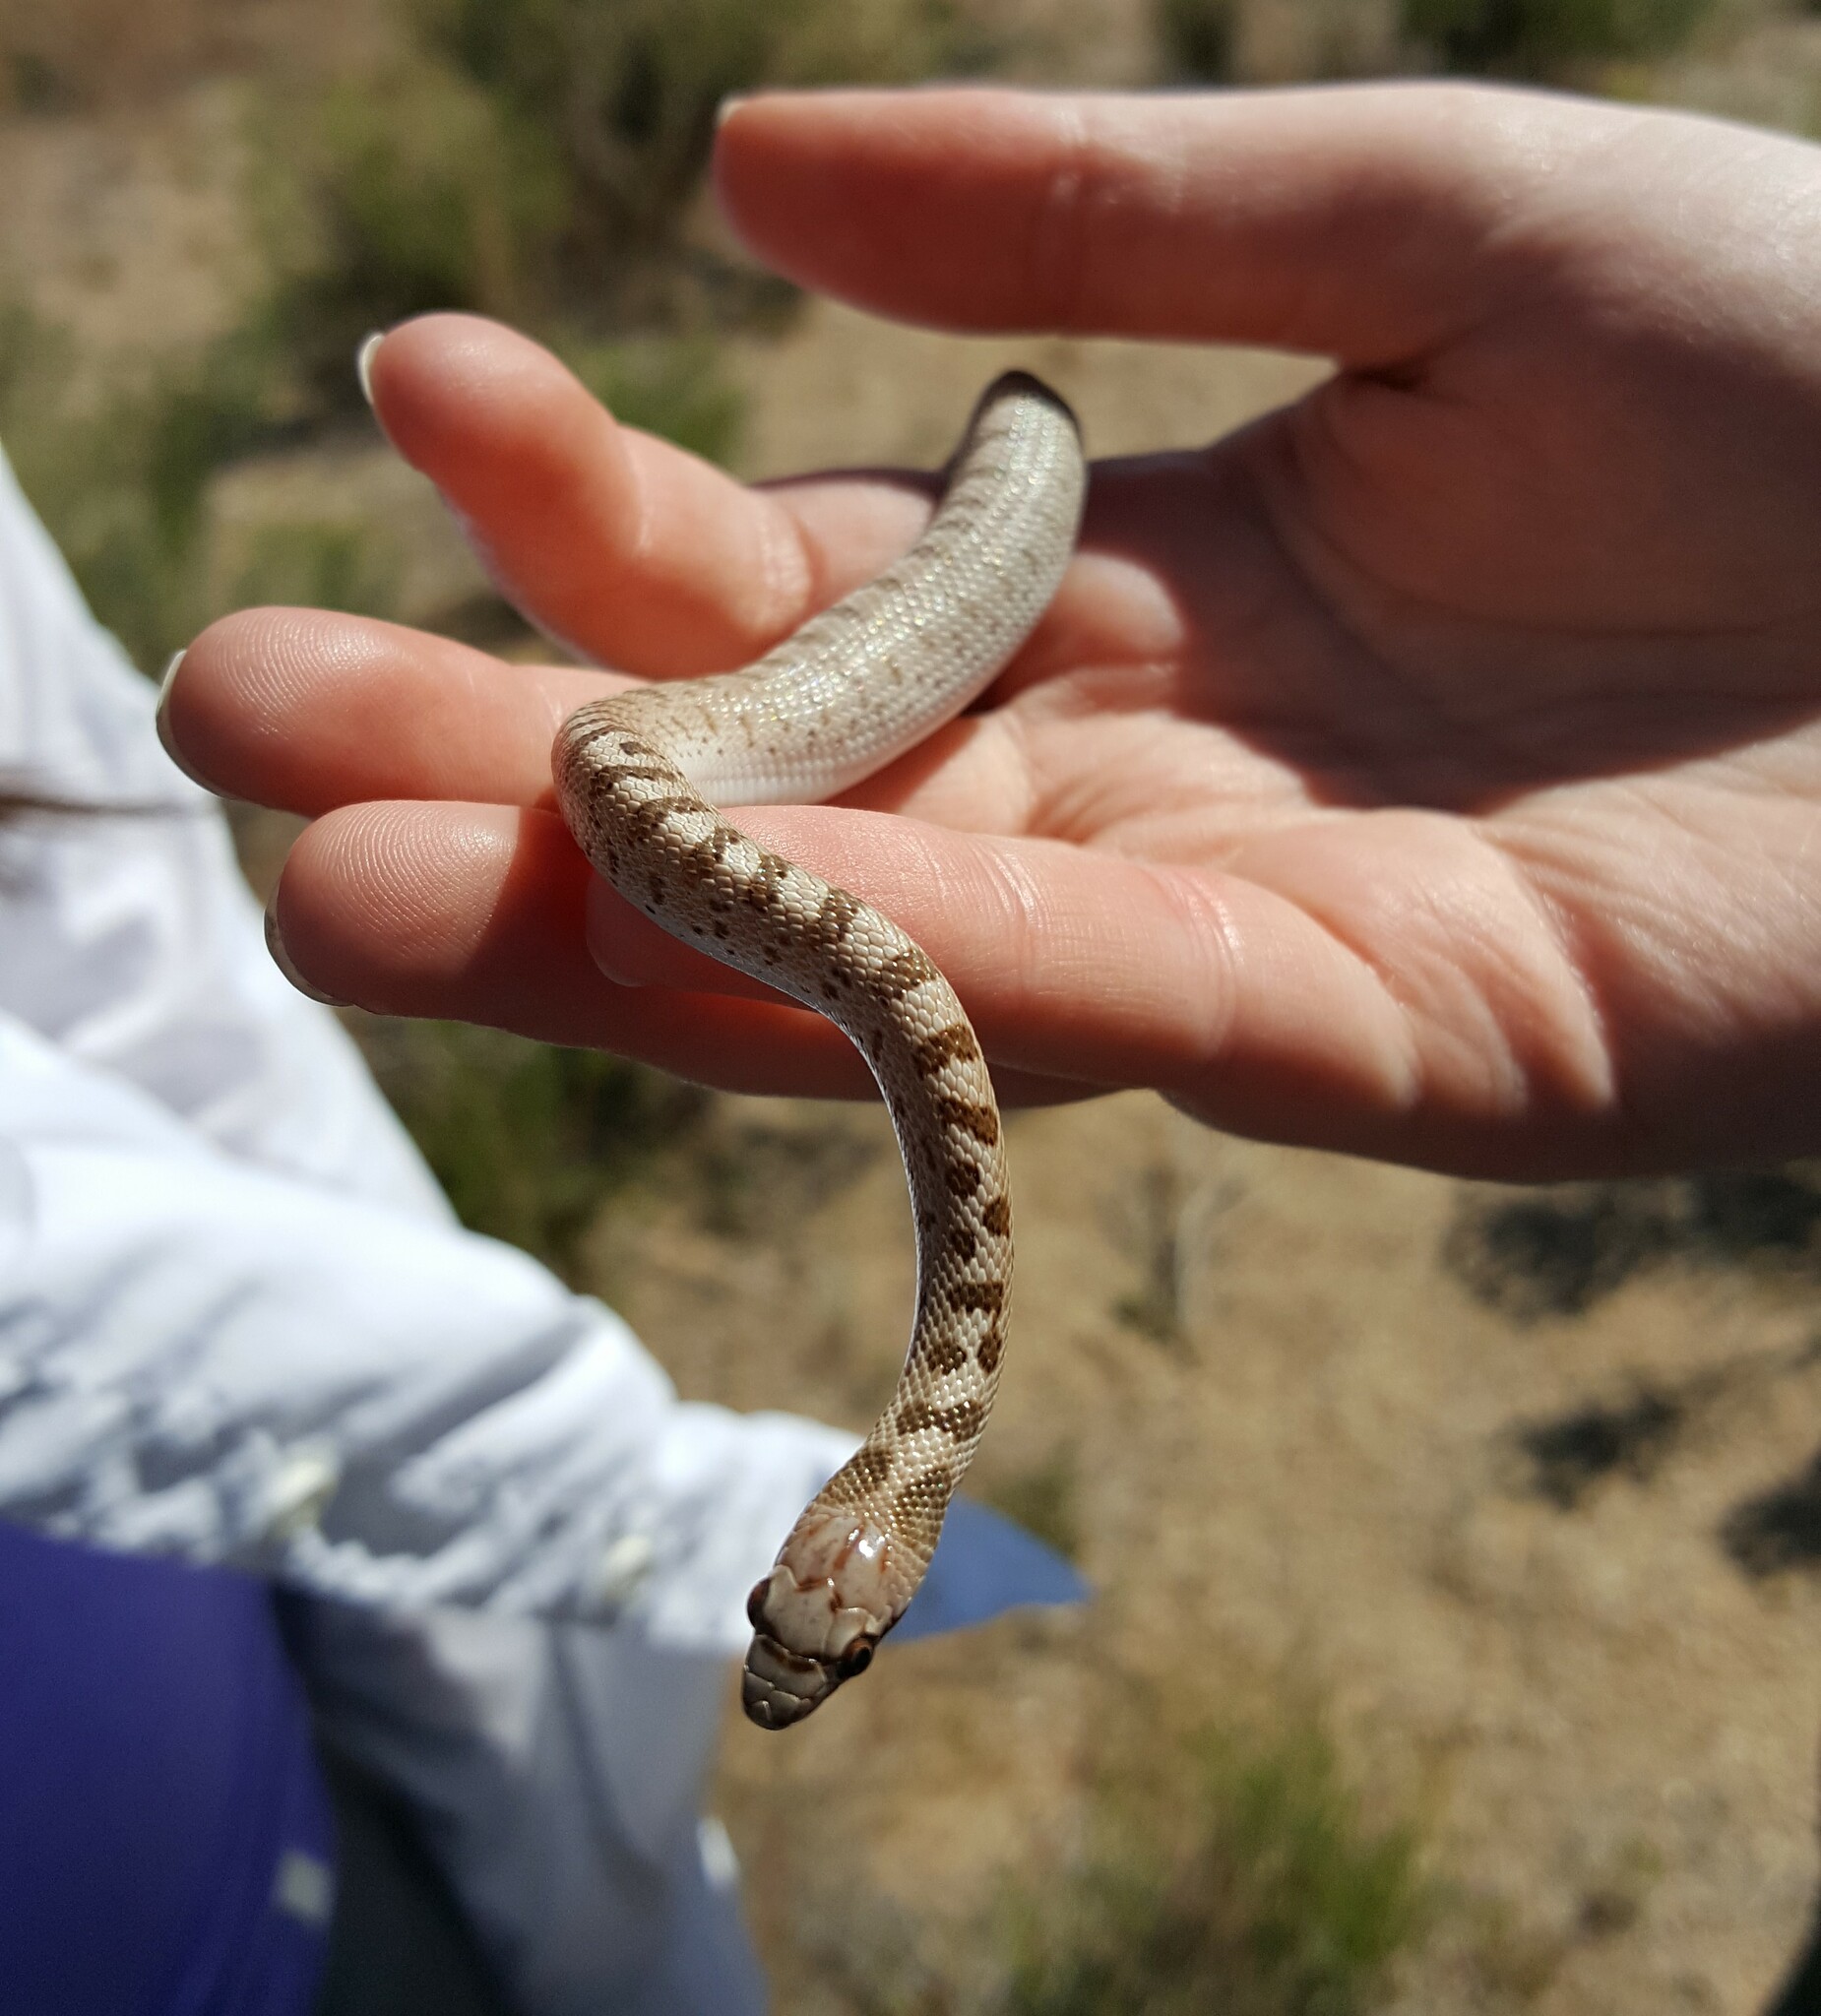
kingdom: Animalia
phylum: Chordata
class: Squamata
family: Colubridae
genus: Arizona
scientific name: Arizona elegans
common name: Glossy snake
